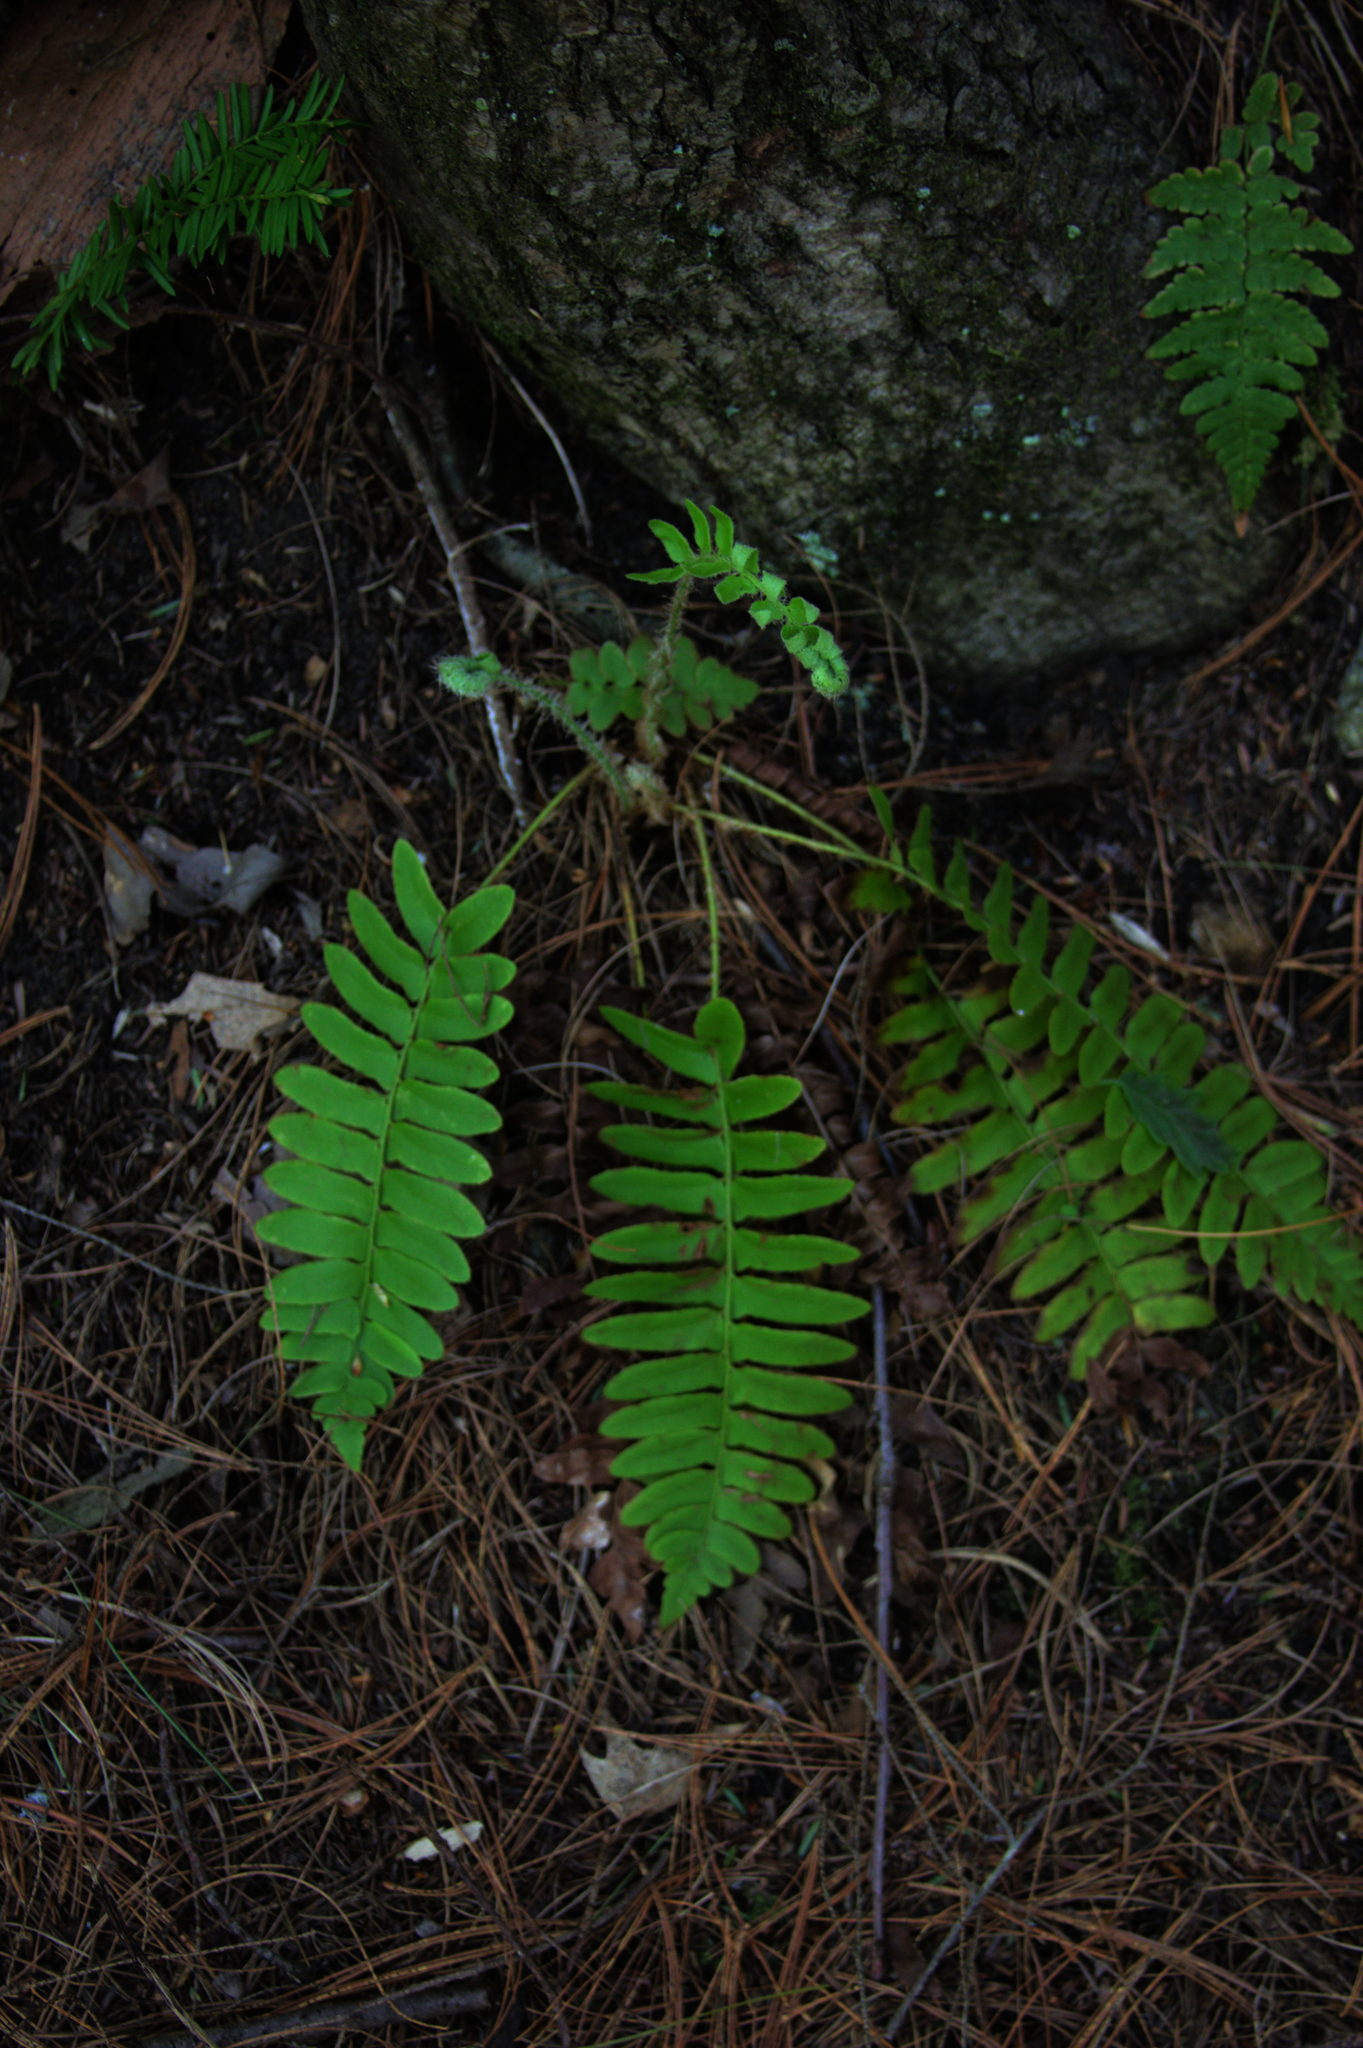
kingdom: Plantae
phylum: Tracheophyta
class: Polypodiopsida
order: Polypodiales
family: Dryopteridaceae
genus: Polystichum
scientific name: Polystichum acrostichoides
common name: Christmas fern
